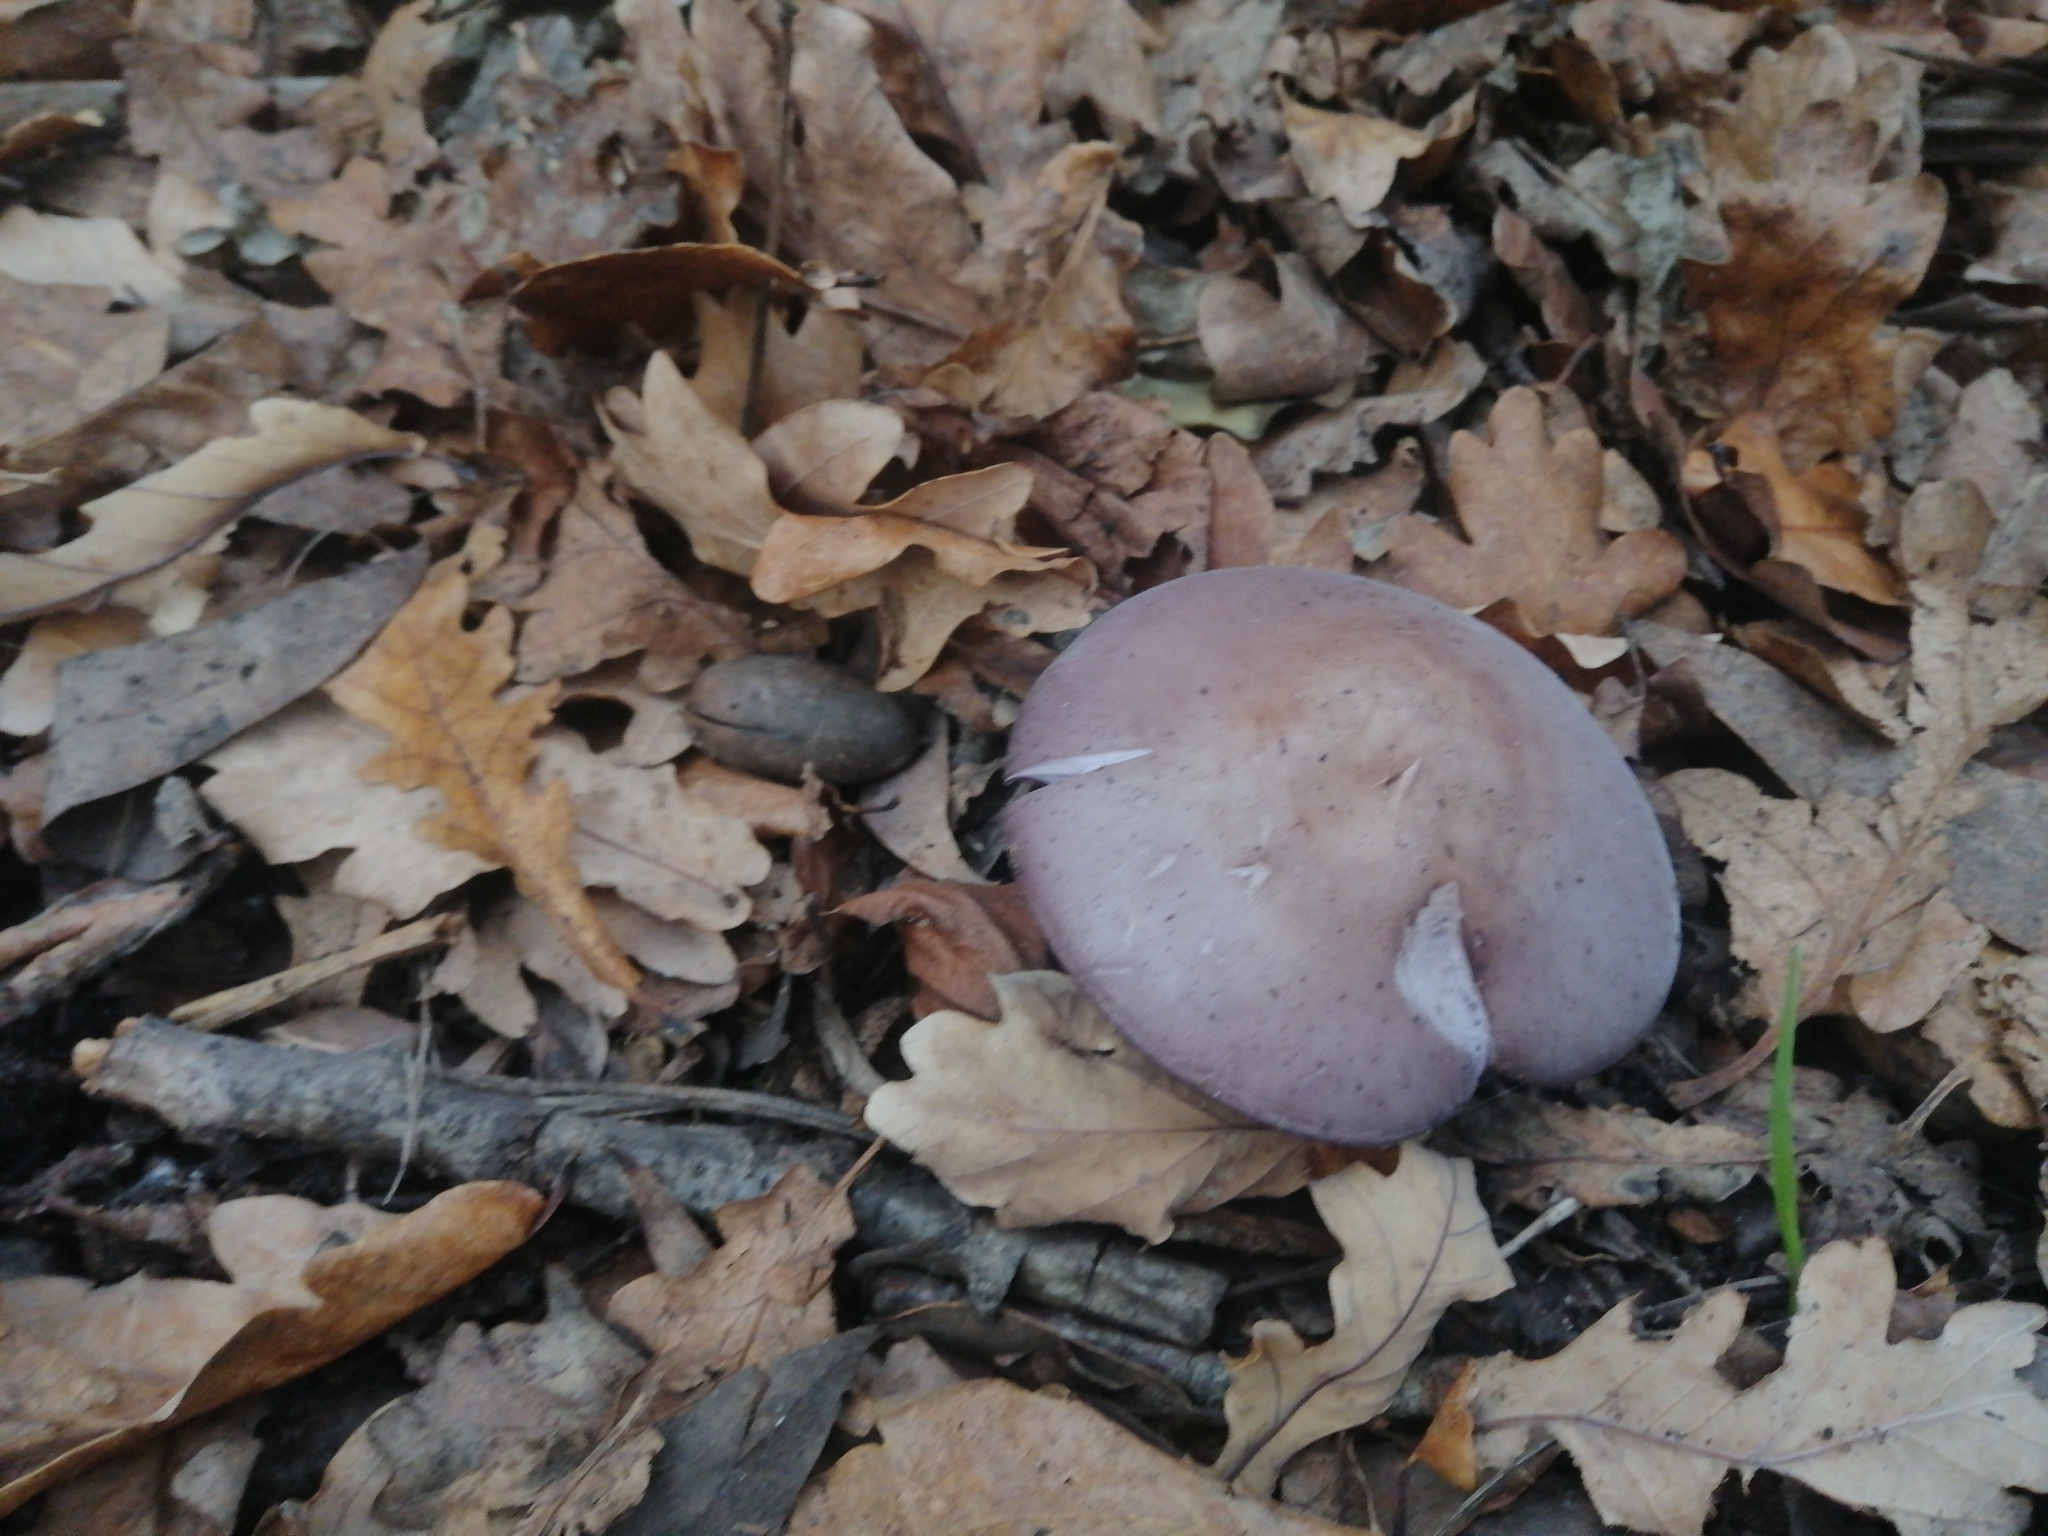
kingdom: Fungi
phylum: Basidiomycota
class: Agaricomycetes
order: Agaricales
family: Tricholomataceae
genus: Collybia
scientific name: Collybia
